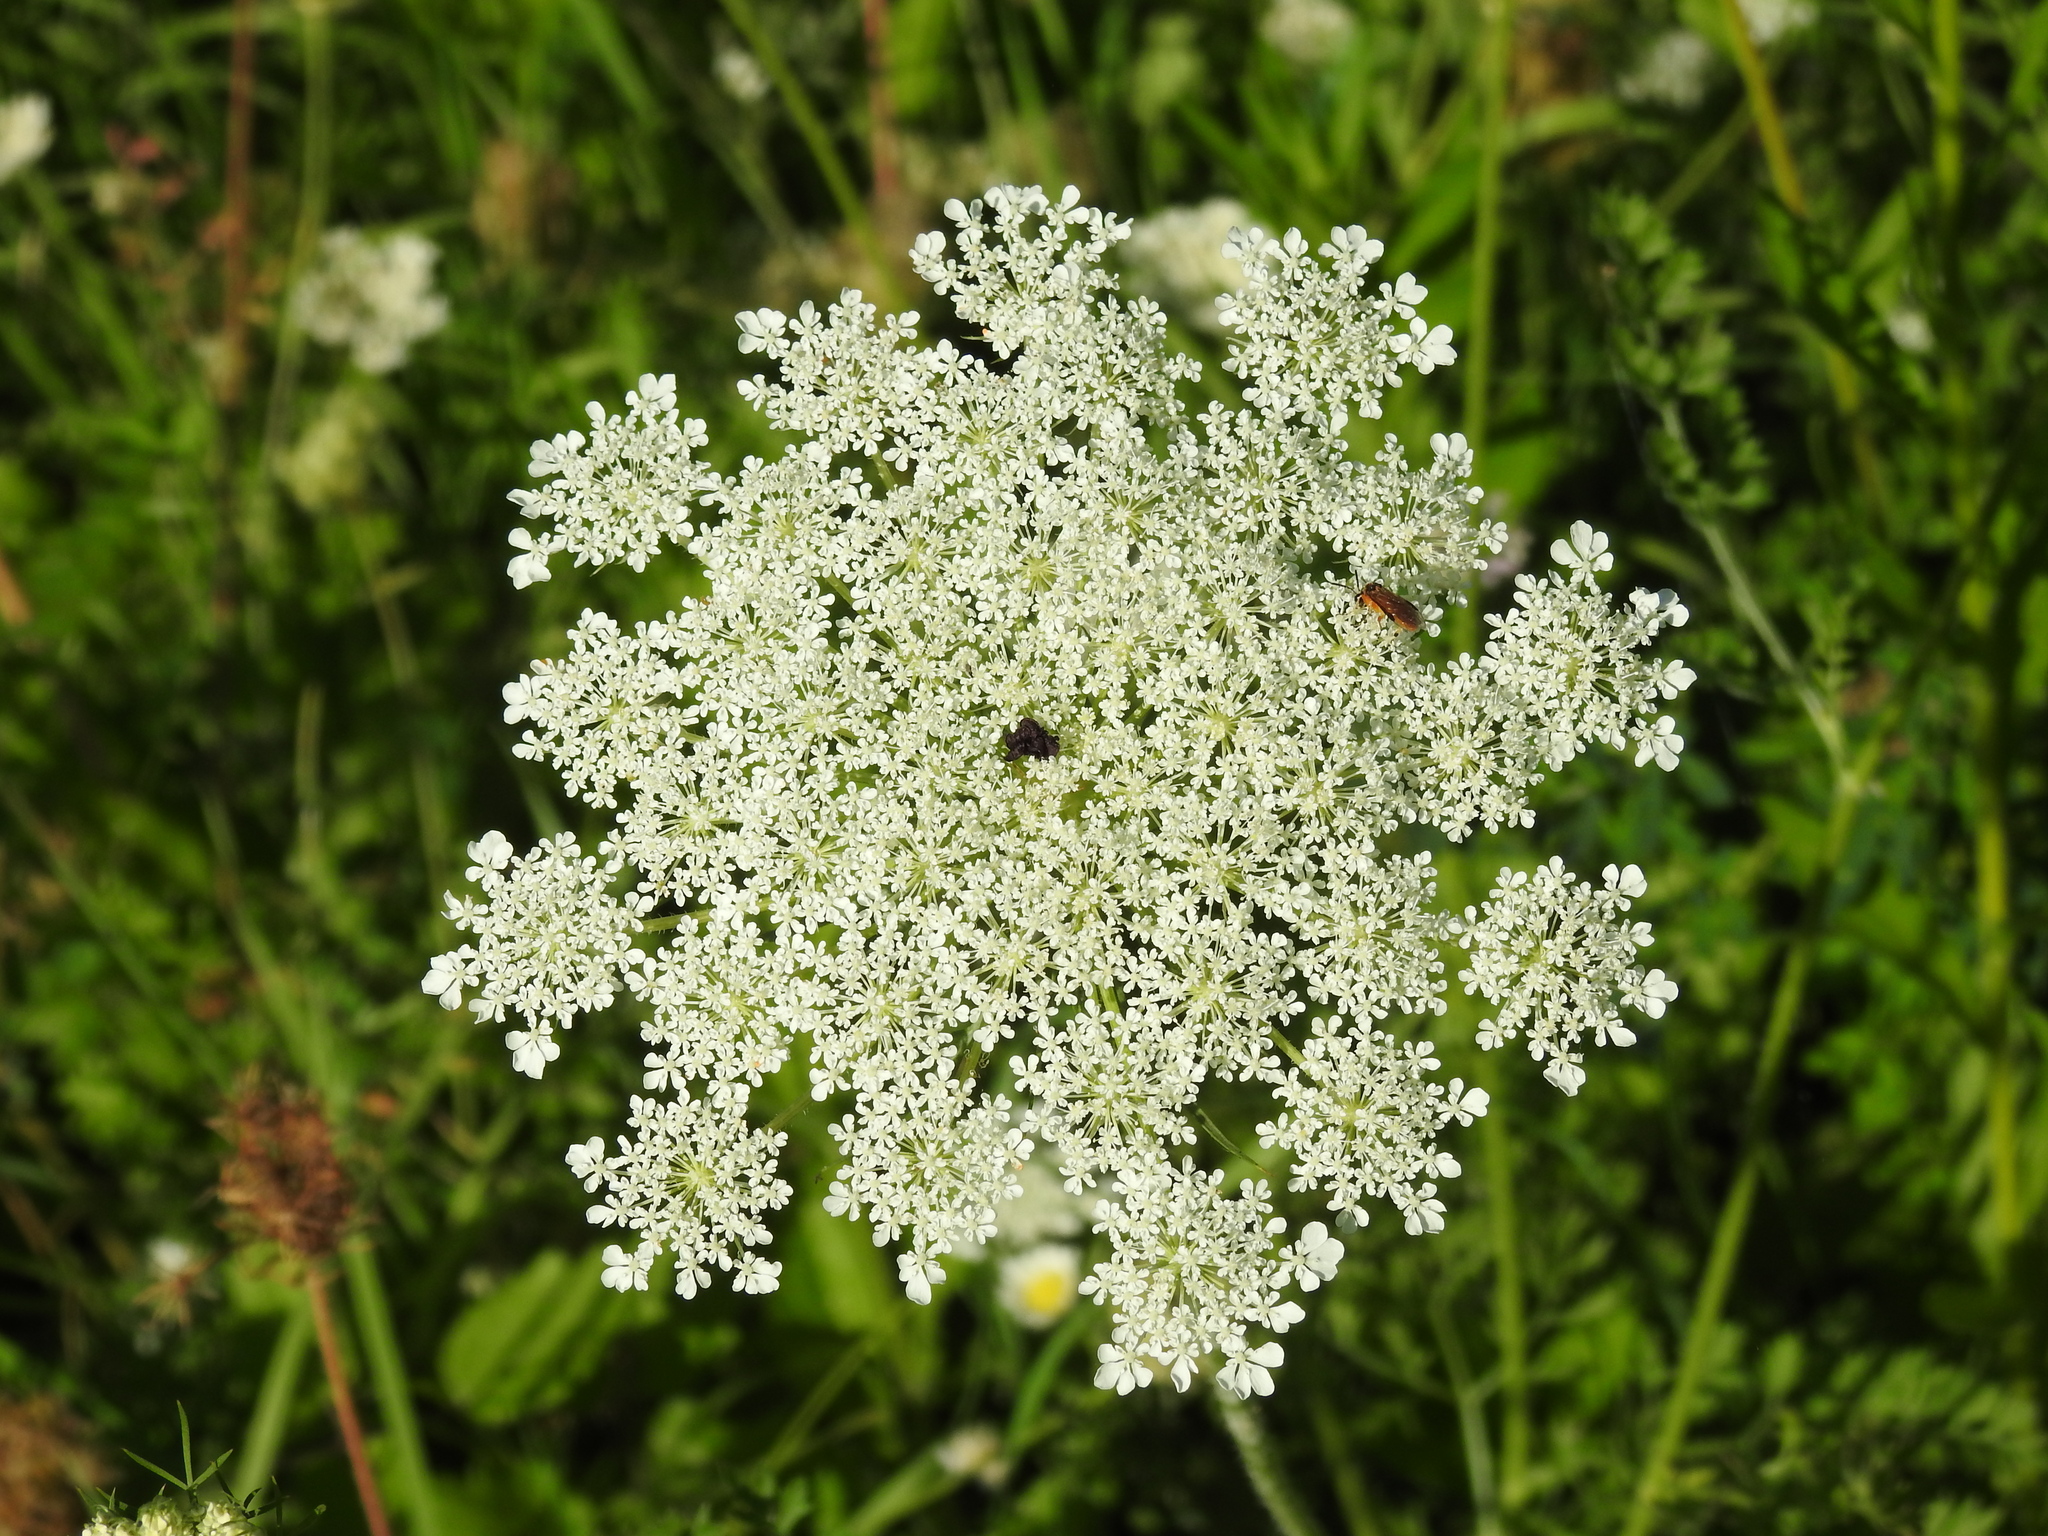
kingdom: Plantae
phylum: Tracheophyta
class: Magnoliopsida
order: Apiales
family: Apiaceae
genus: Daucus
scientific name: Daucus carota
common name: Wild carrot
